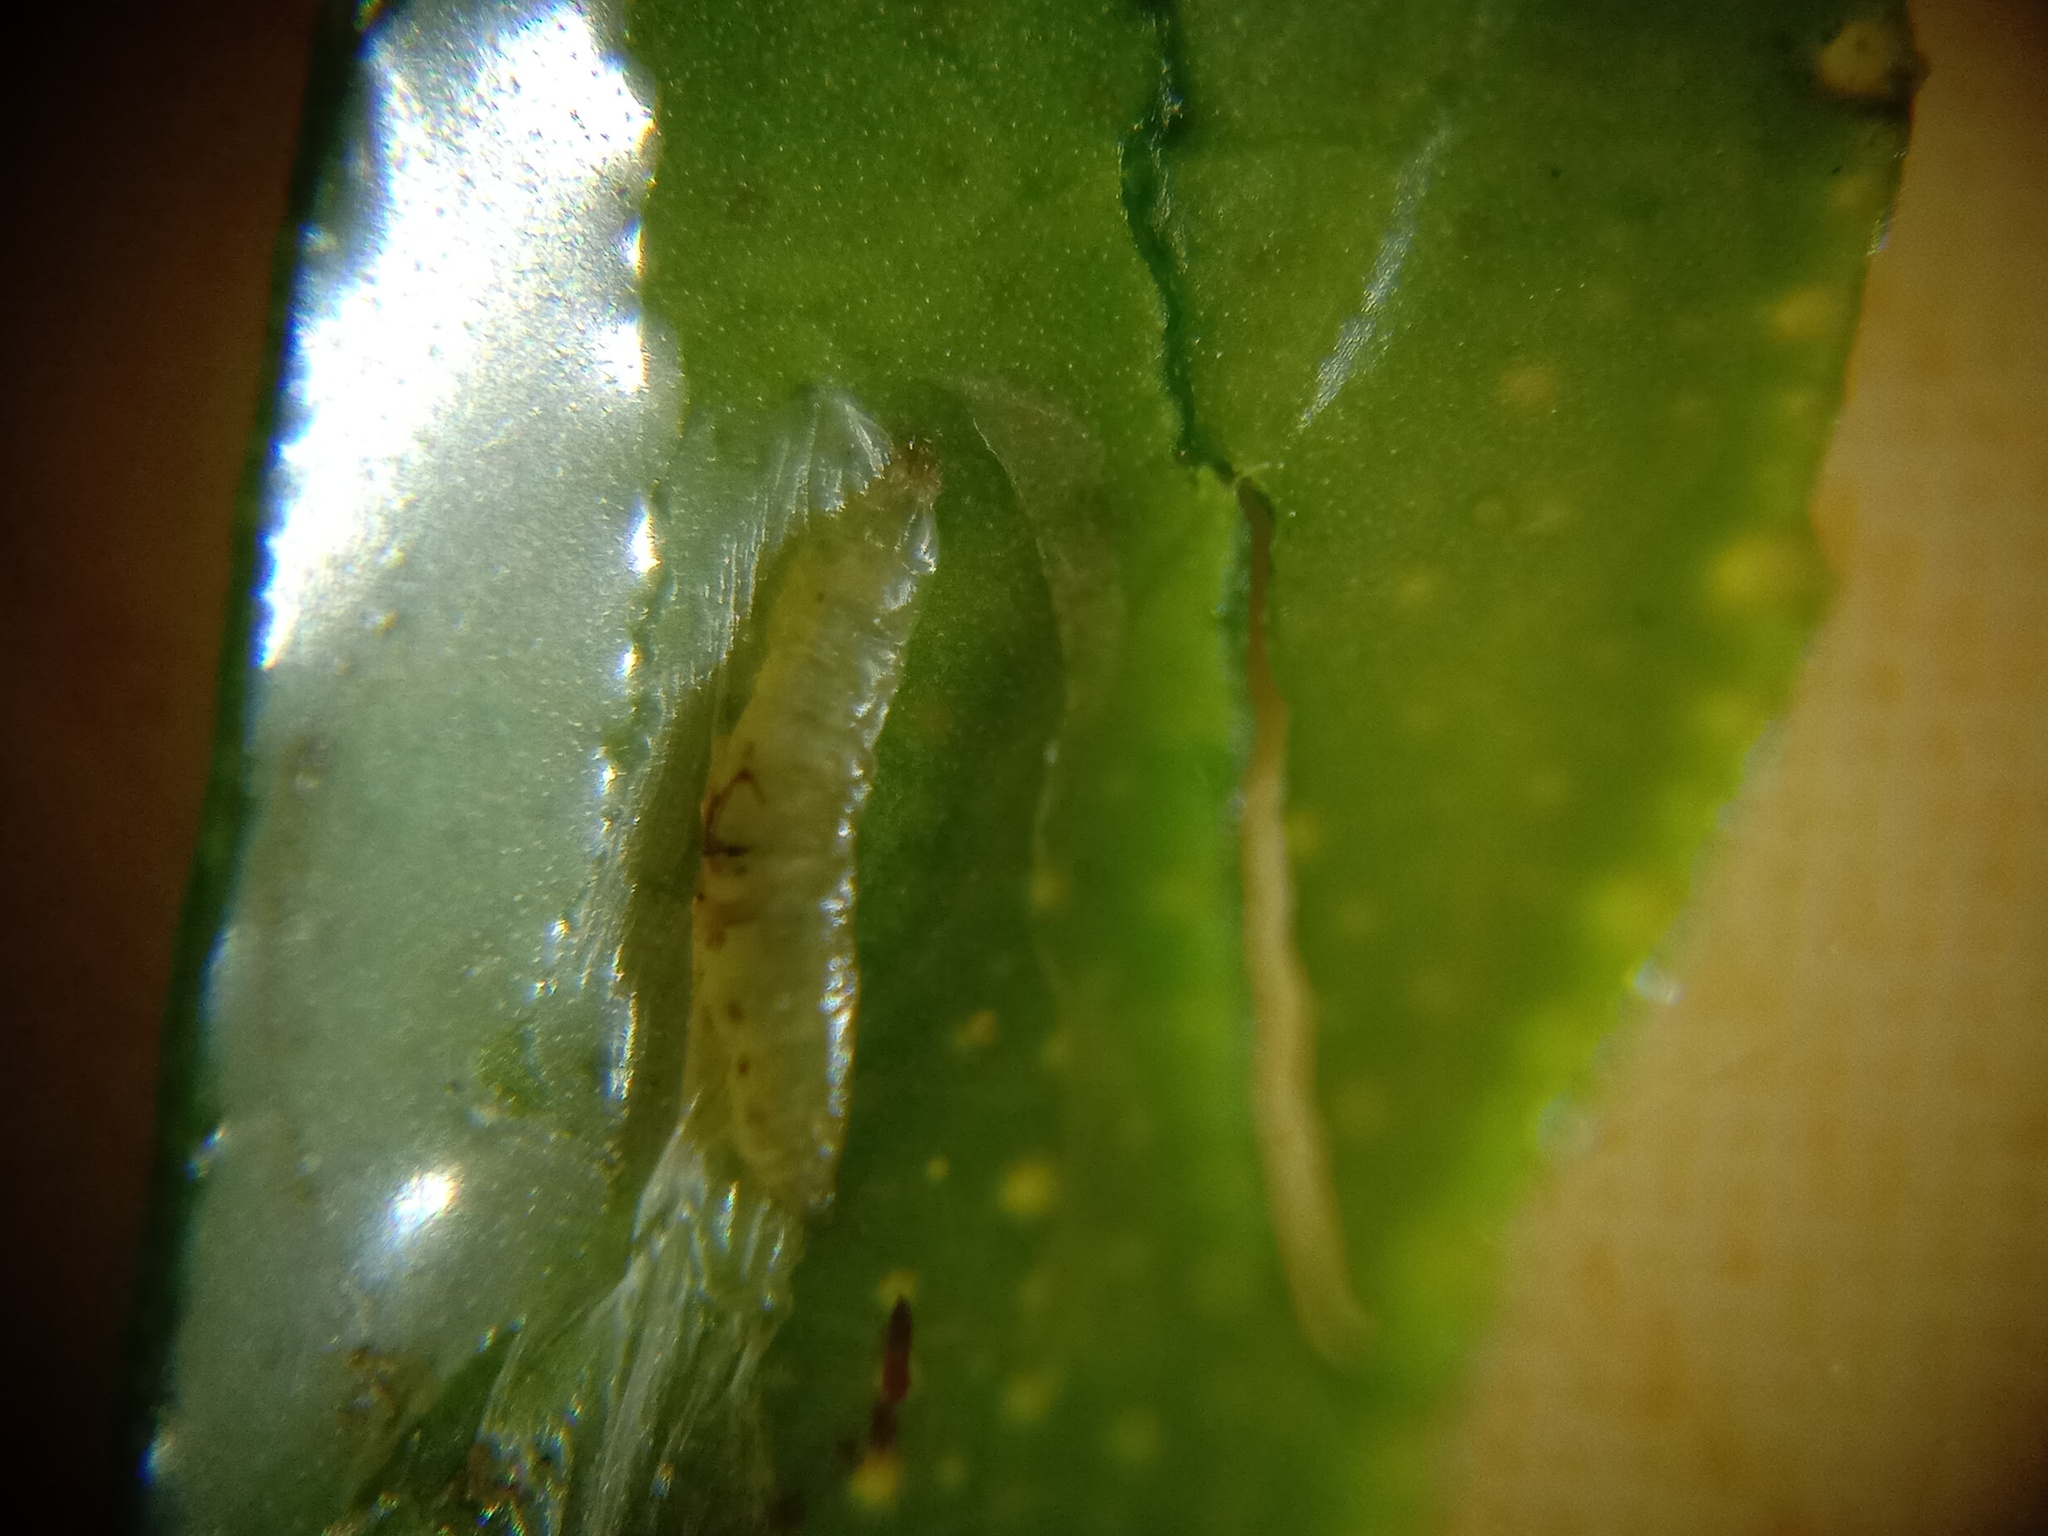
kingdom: Animalia
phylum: Arthropoda
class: Insecta
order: Lepidoptera
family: Gracillariidae
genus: Phyllocnistis
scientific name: Phyllocnistis citrella
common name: Citrus leafminer
